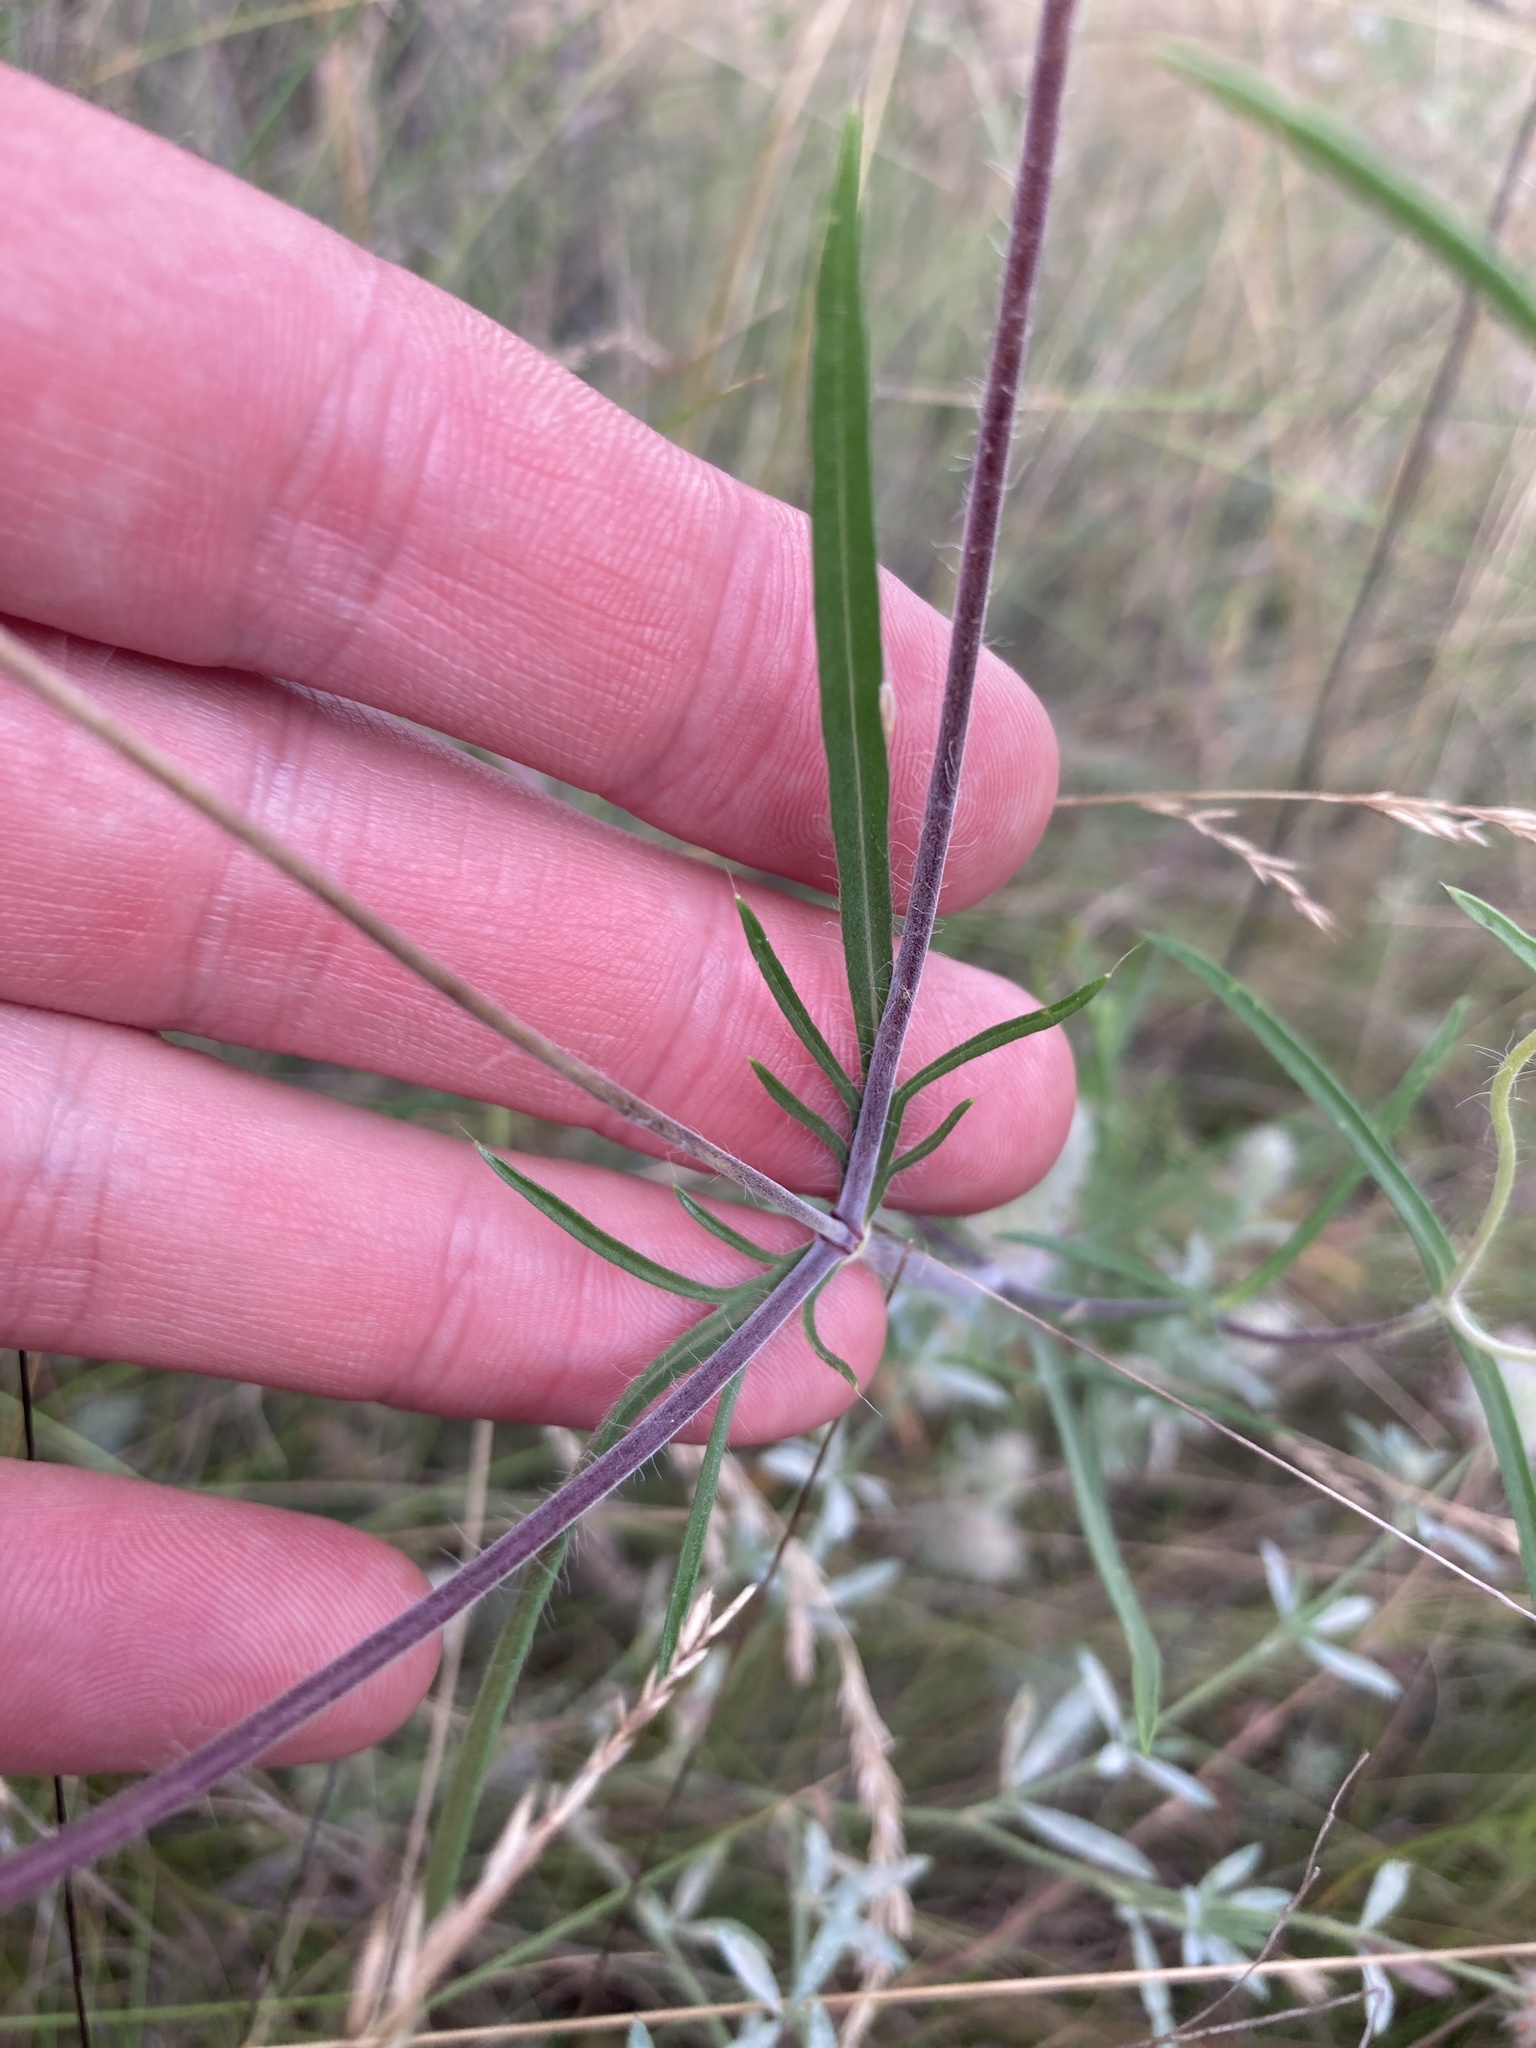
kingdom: Plantae
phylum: Tracheophyta
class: Magnoliopsida
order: Dipsacales
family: Caprifoliaceae
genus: Lomelosia
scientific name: Lomelosia argentea
